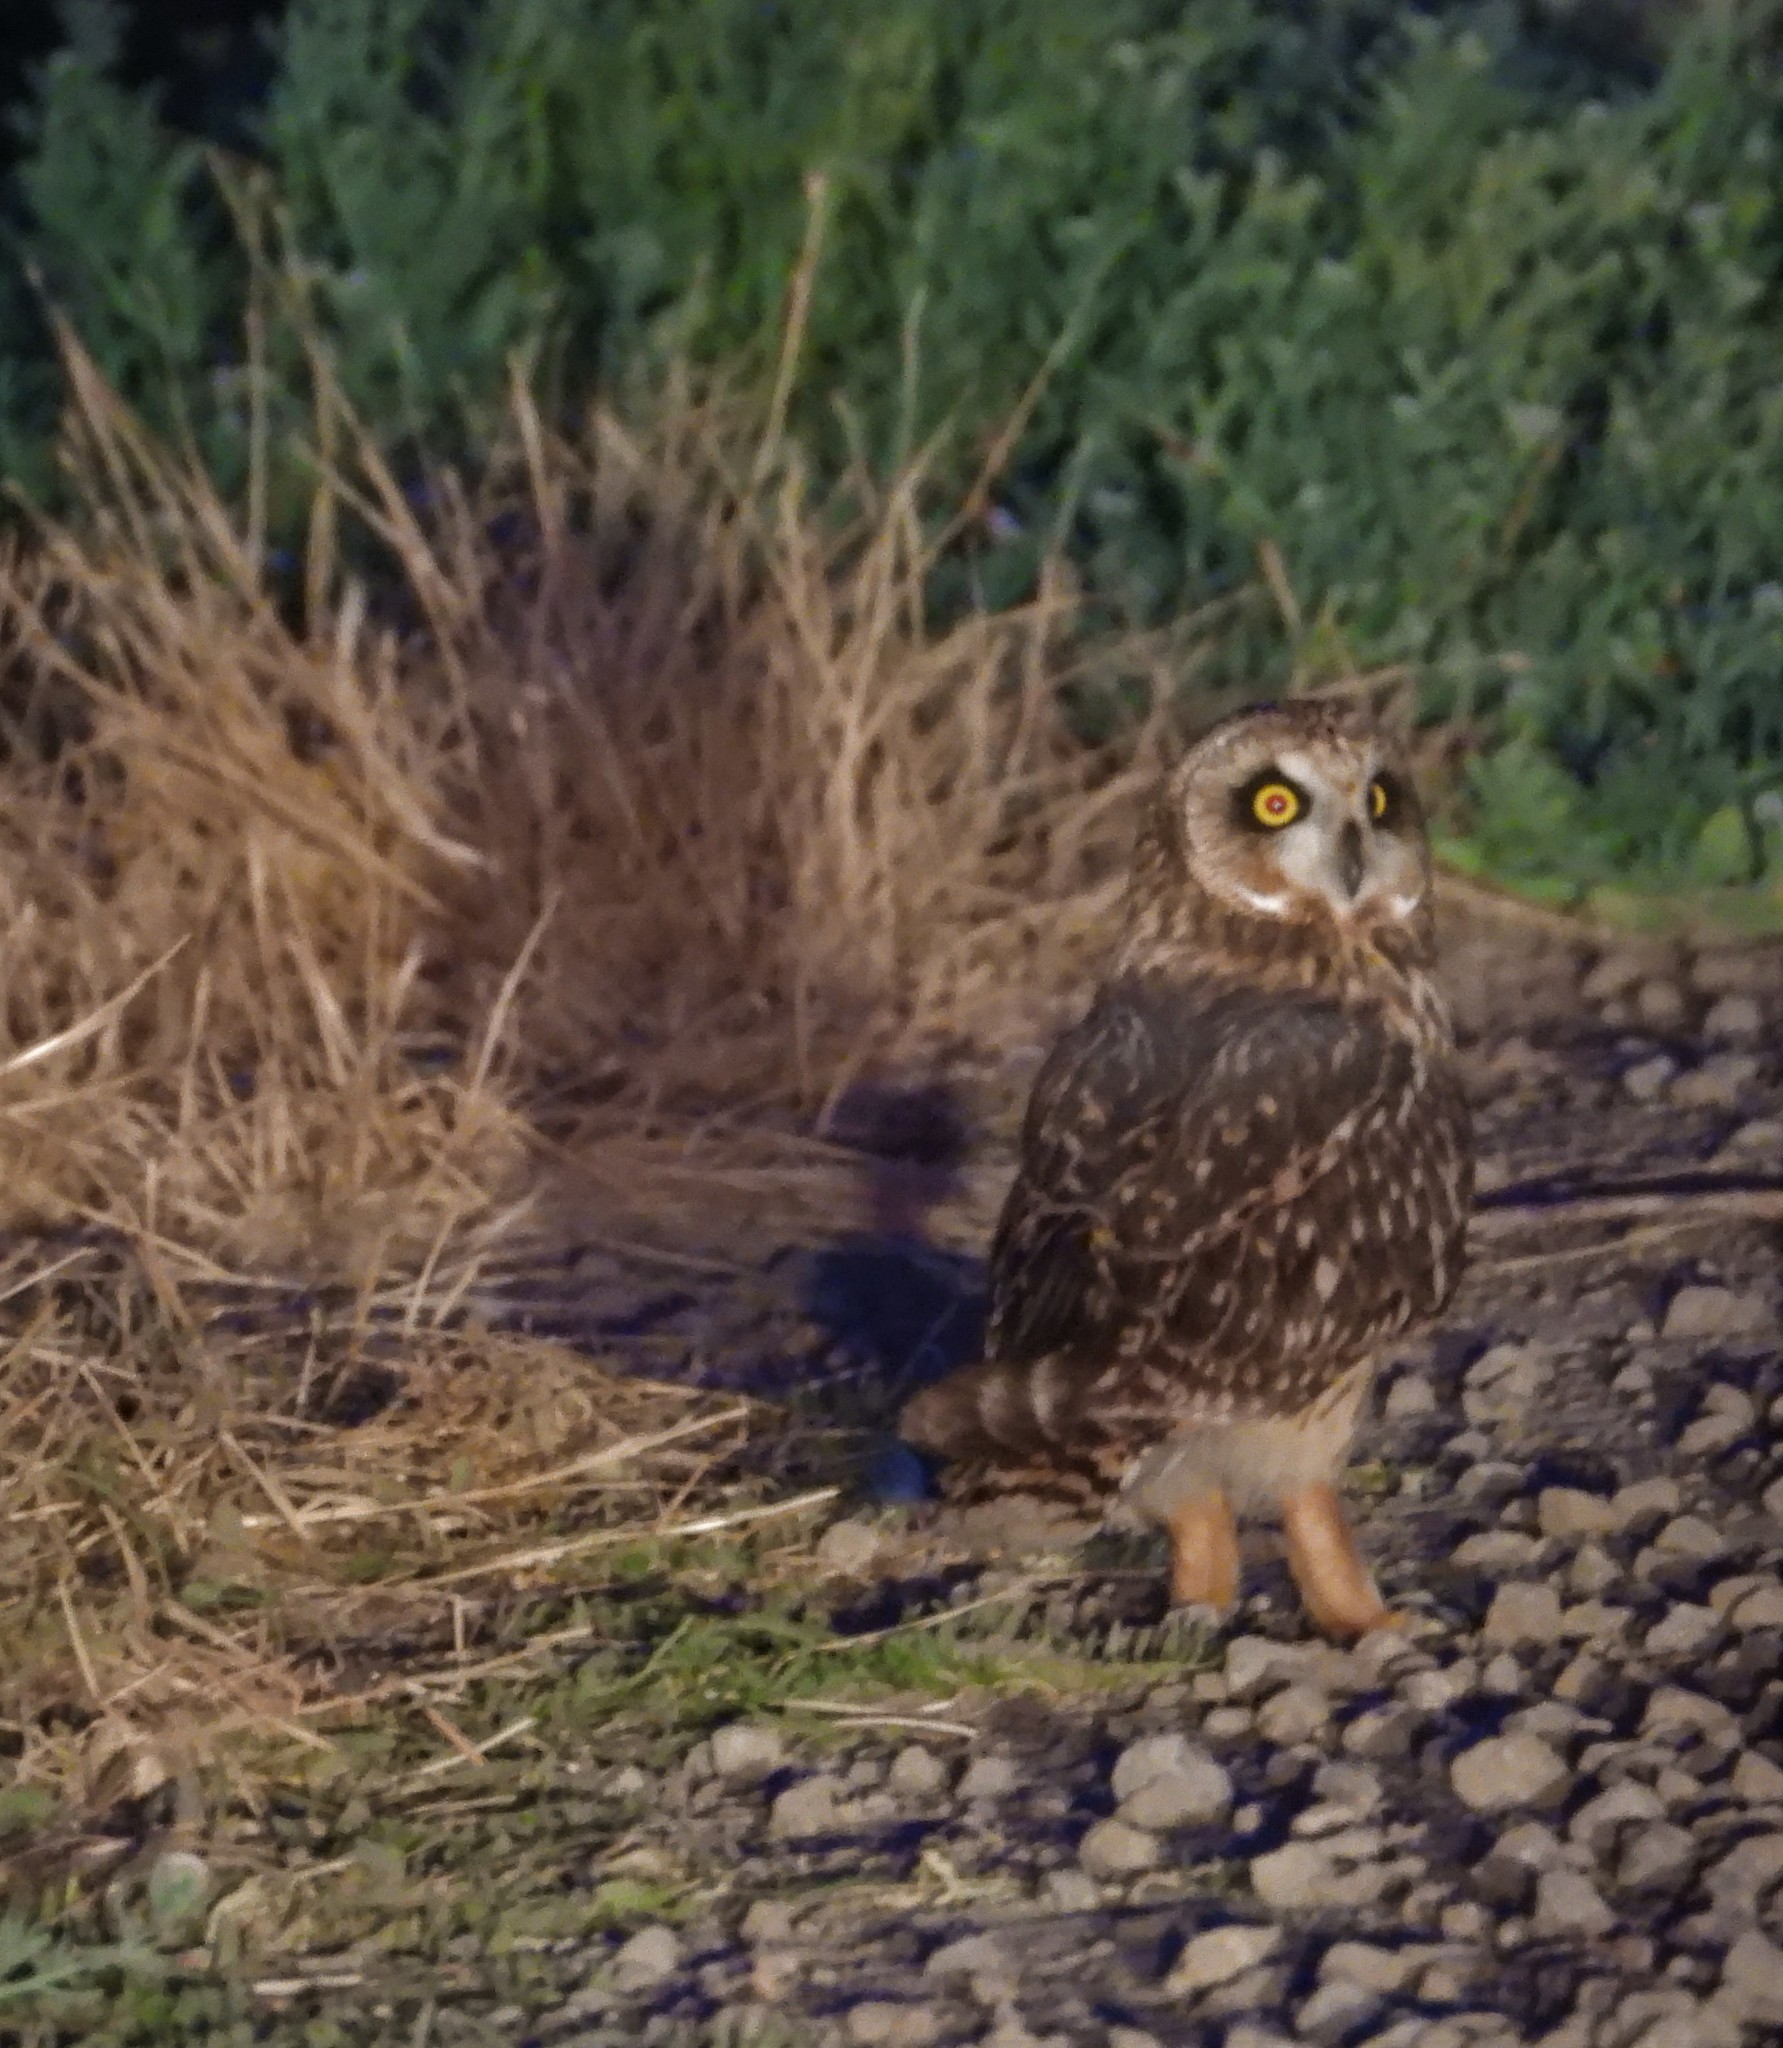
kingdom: Animalia
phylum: Chordata
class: Aves
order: Strigiformes
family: Strigidae
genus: Asio
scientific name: Asio flammeus
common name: Short-eared owl
